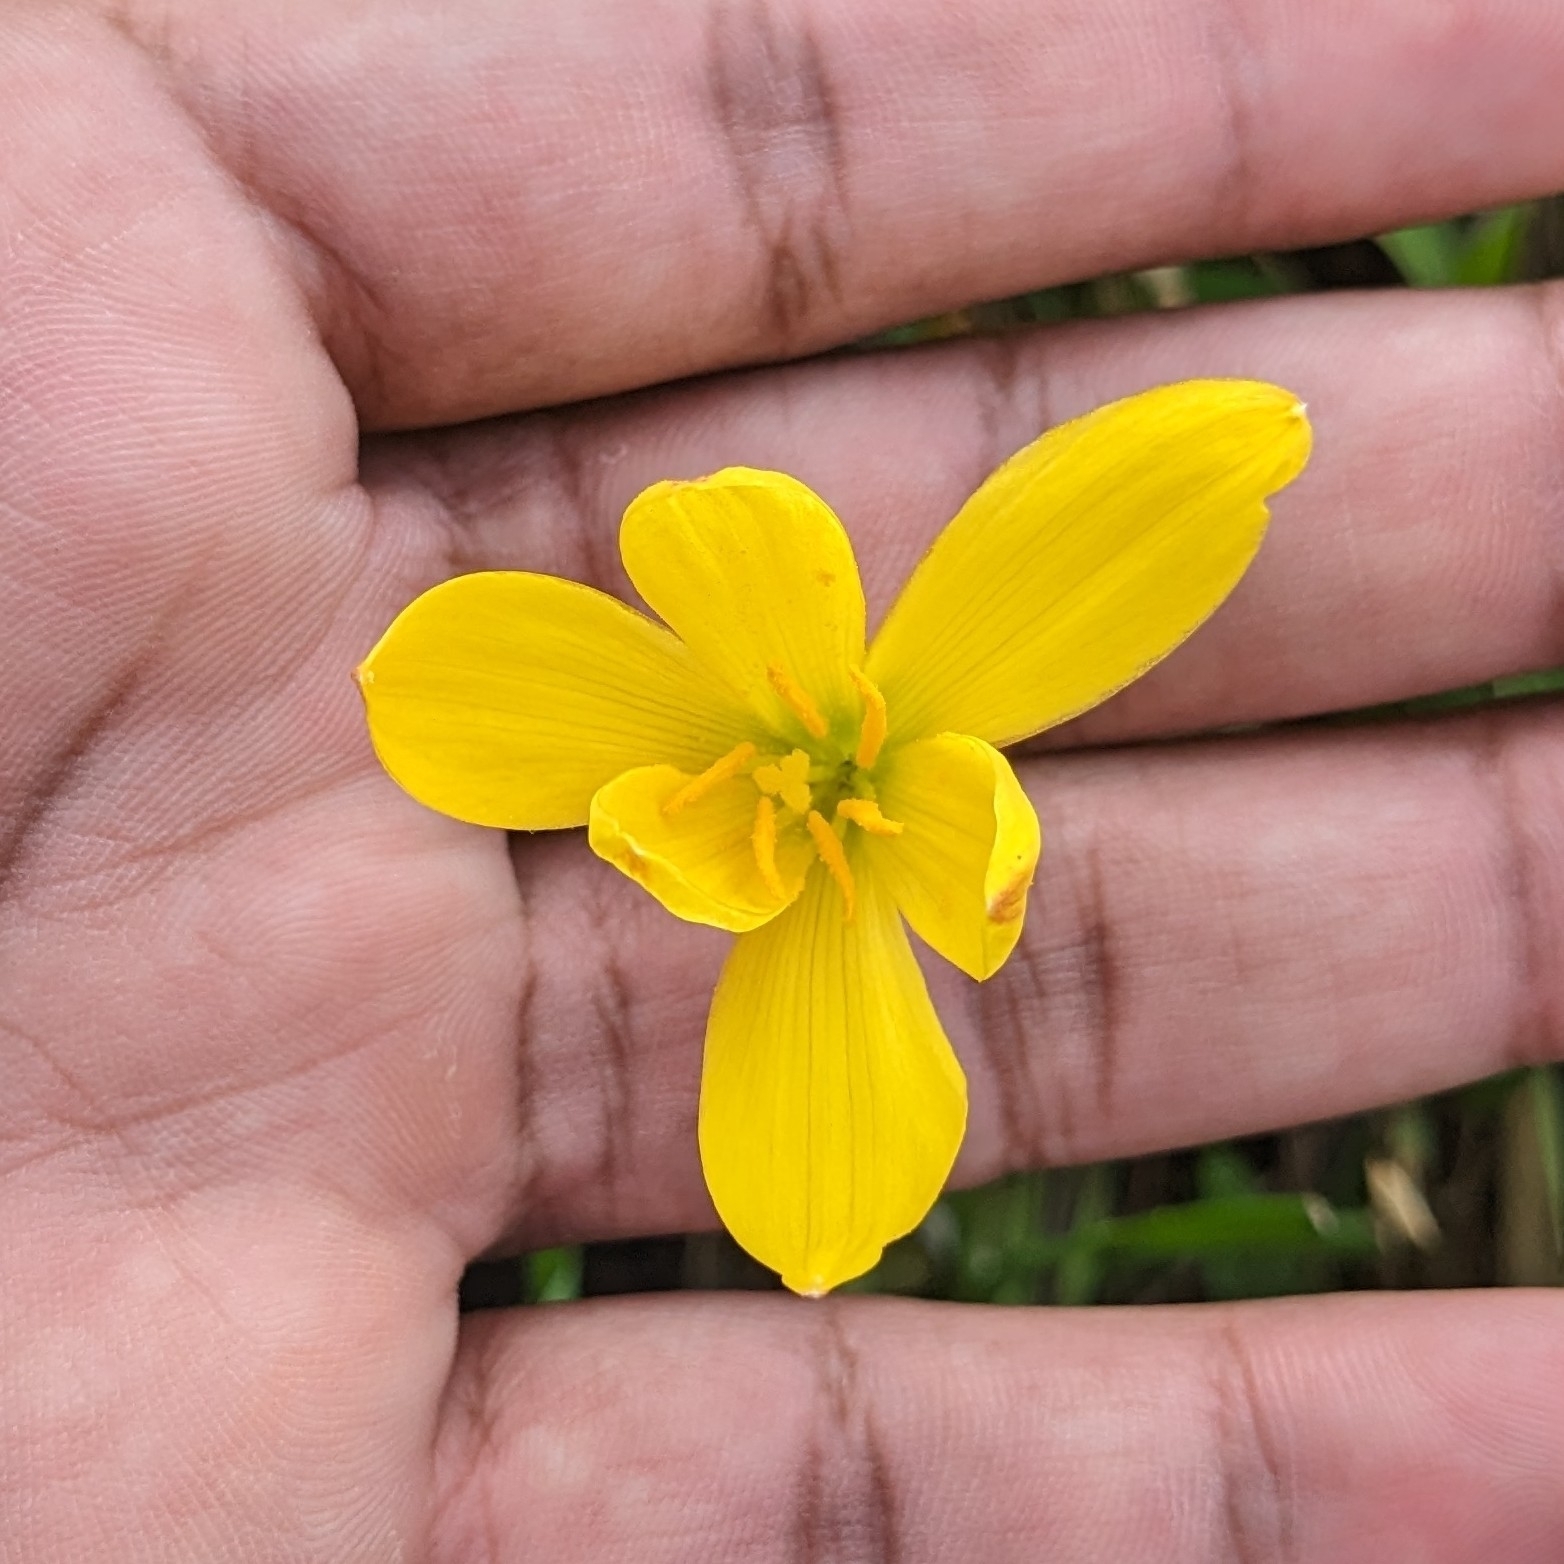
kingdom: Plantae
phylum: Tracheophyta
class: Liliopsida
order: Asparagales
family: Amaryllidaceae
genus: Zephyranthes
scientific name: Zephyranthes citrina
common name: Citron zephyrlily
